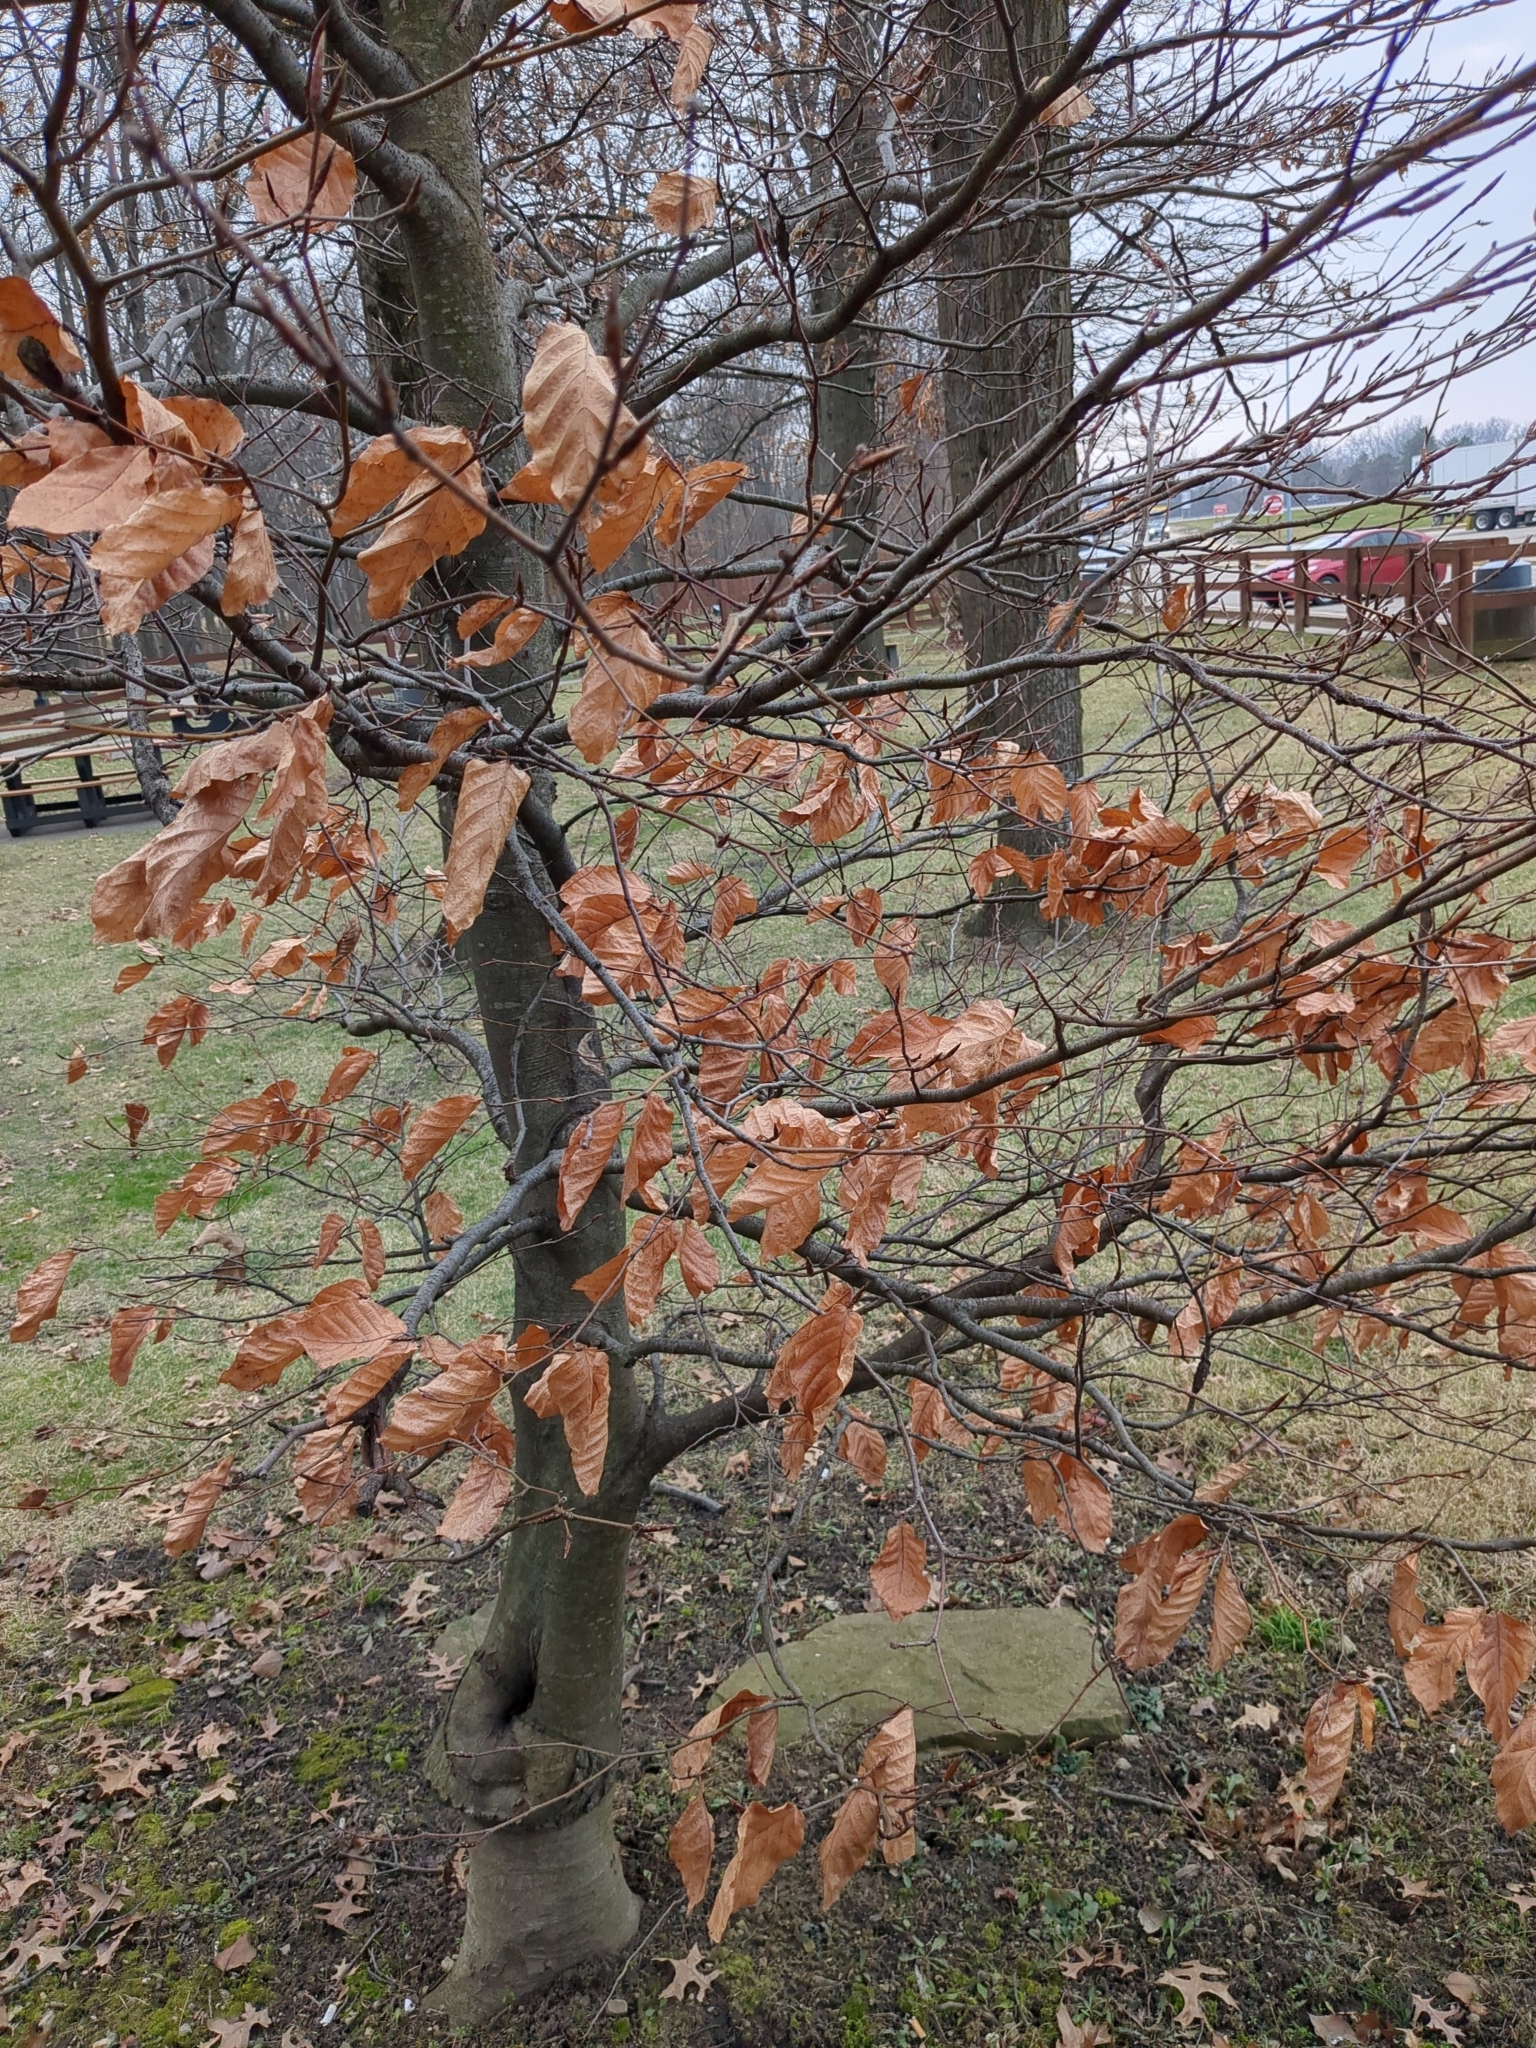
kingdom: Plantae
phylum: Tracheophyta
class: Magnoliopsida
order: Fagales
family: Fagaceae
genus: Fagus
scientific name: Fagus grandifolia
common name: American beech
